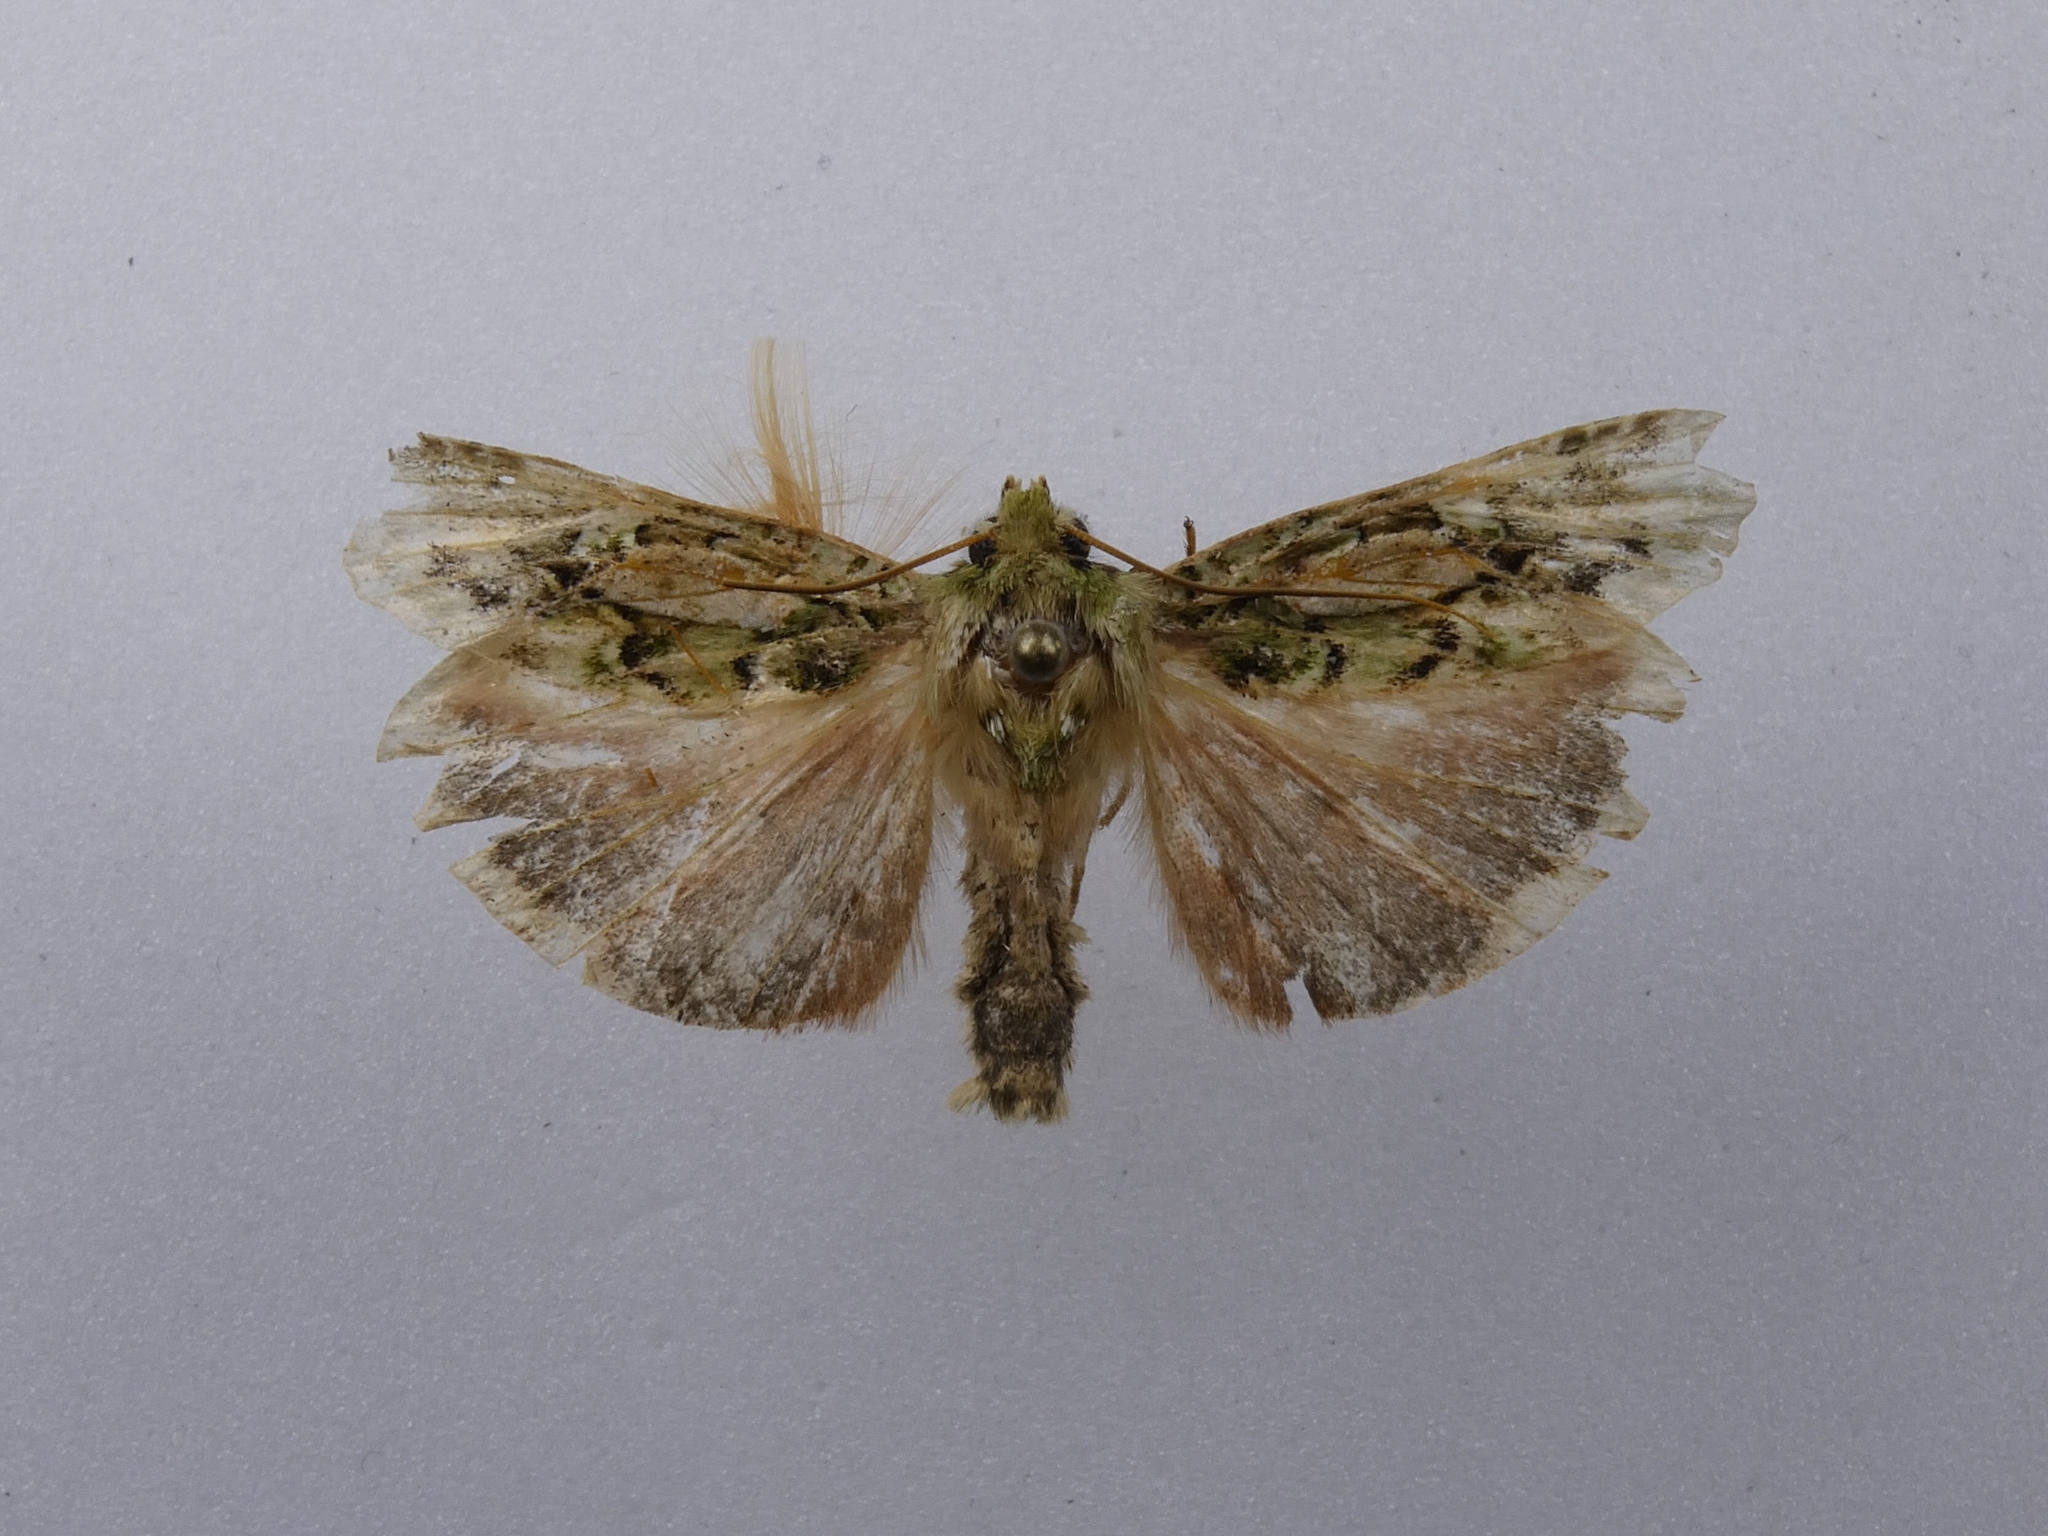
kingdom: Animalia
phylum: Arthropoda
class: Insecta
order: Lepidoptera
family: Noctuidae
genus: Feredayia
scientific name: Feredayia grammosa
